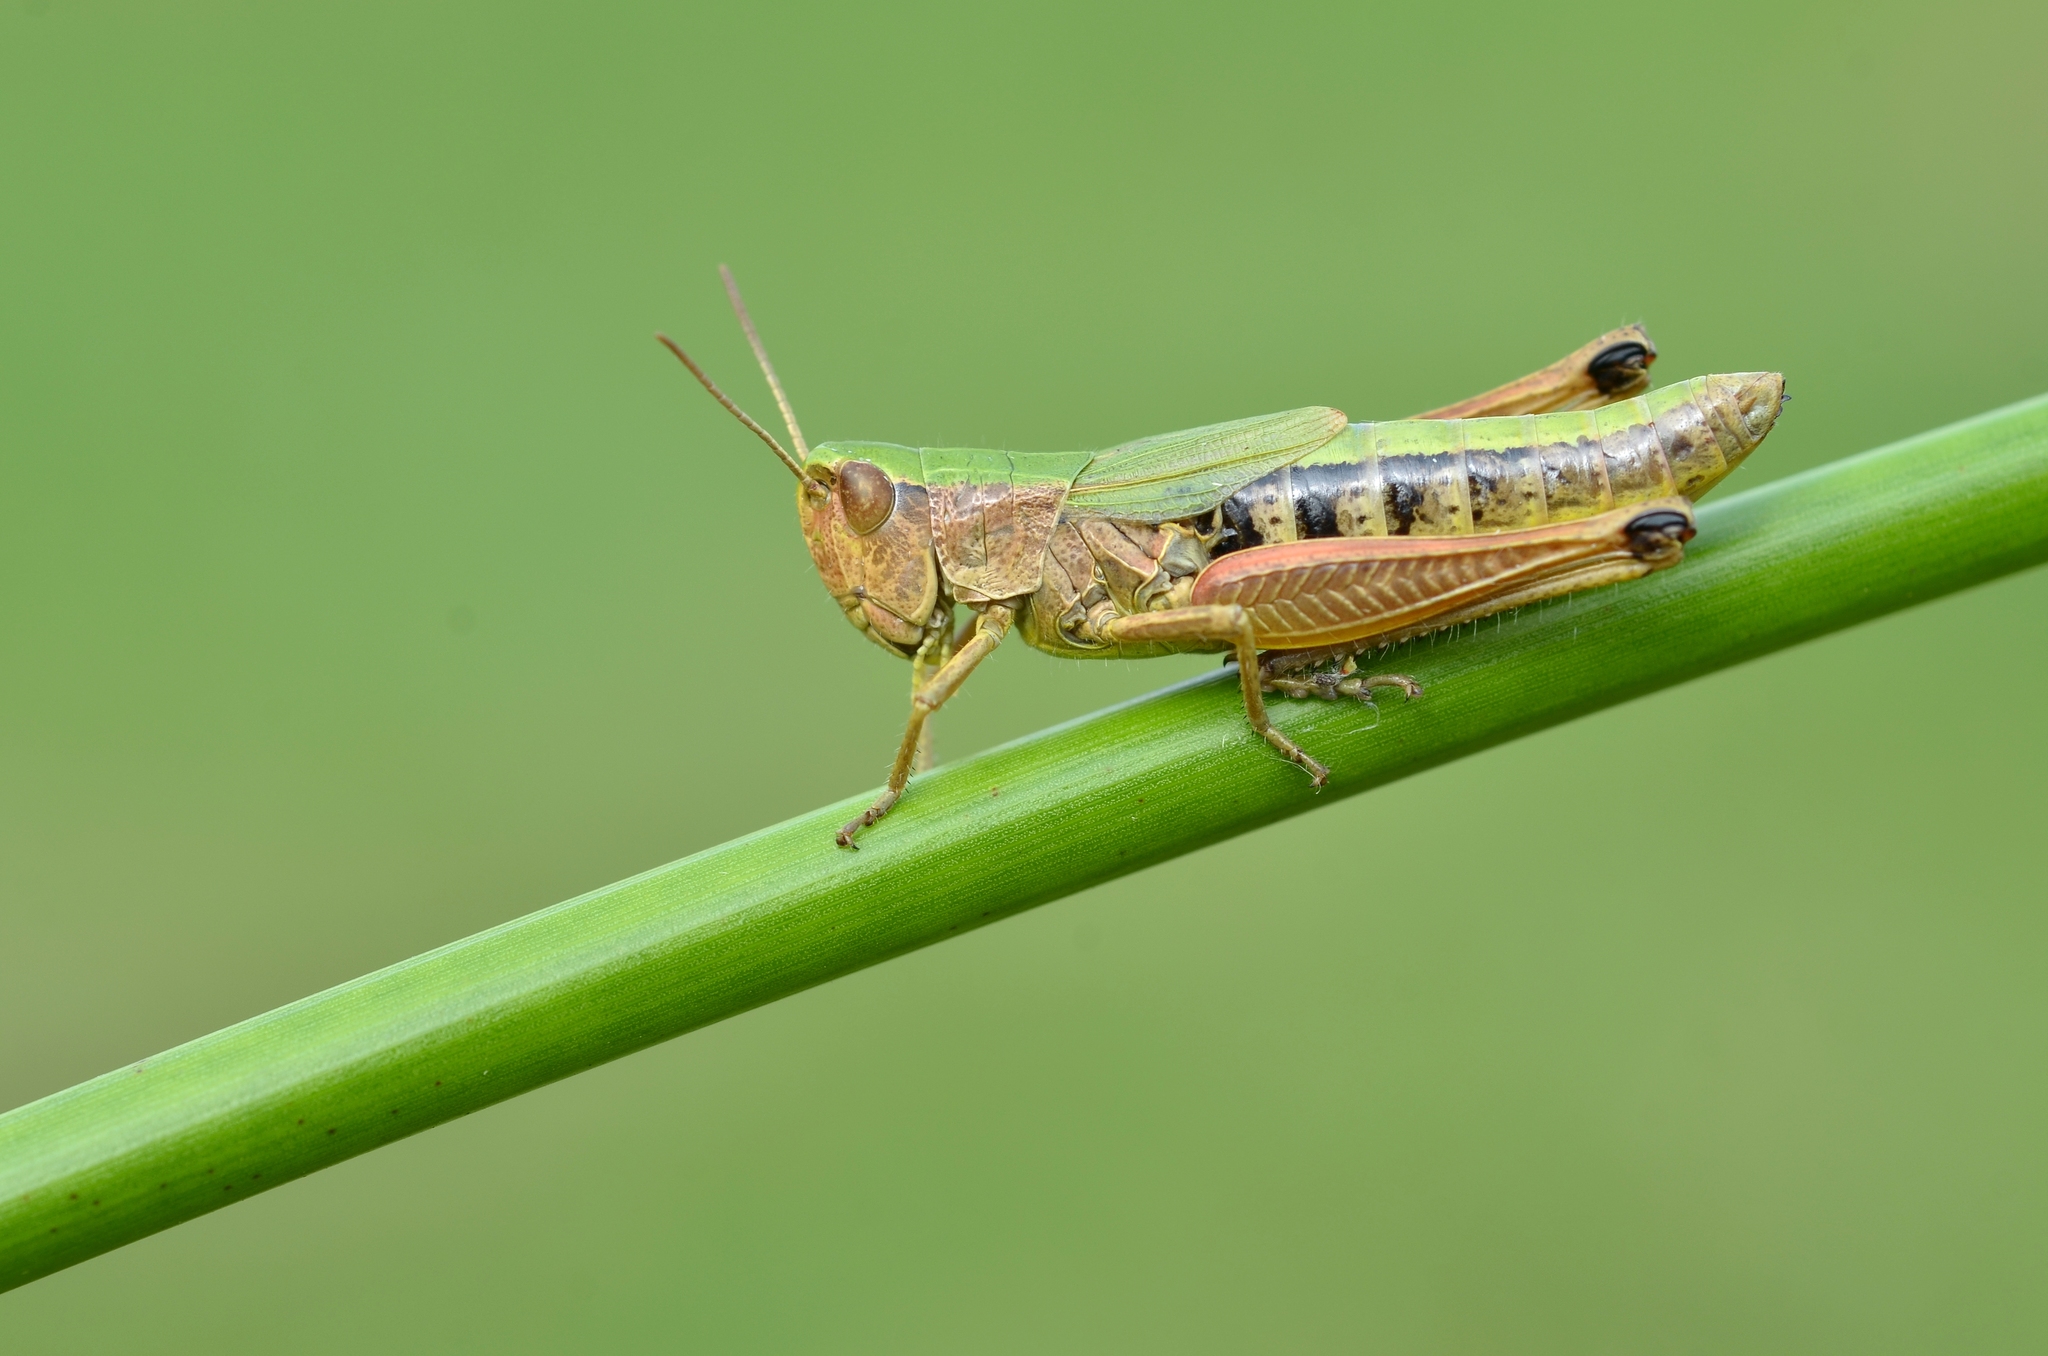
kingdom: Animalia
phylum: Arthropoda
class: Insecta
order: Orthoptera
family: Acrididae
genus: Pseudochorthippus
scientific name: Pseudochorthippus parallelus
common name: Meadow grasshopper
